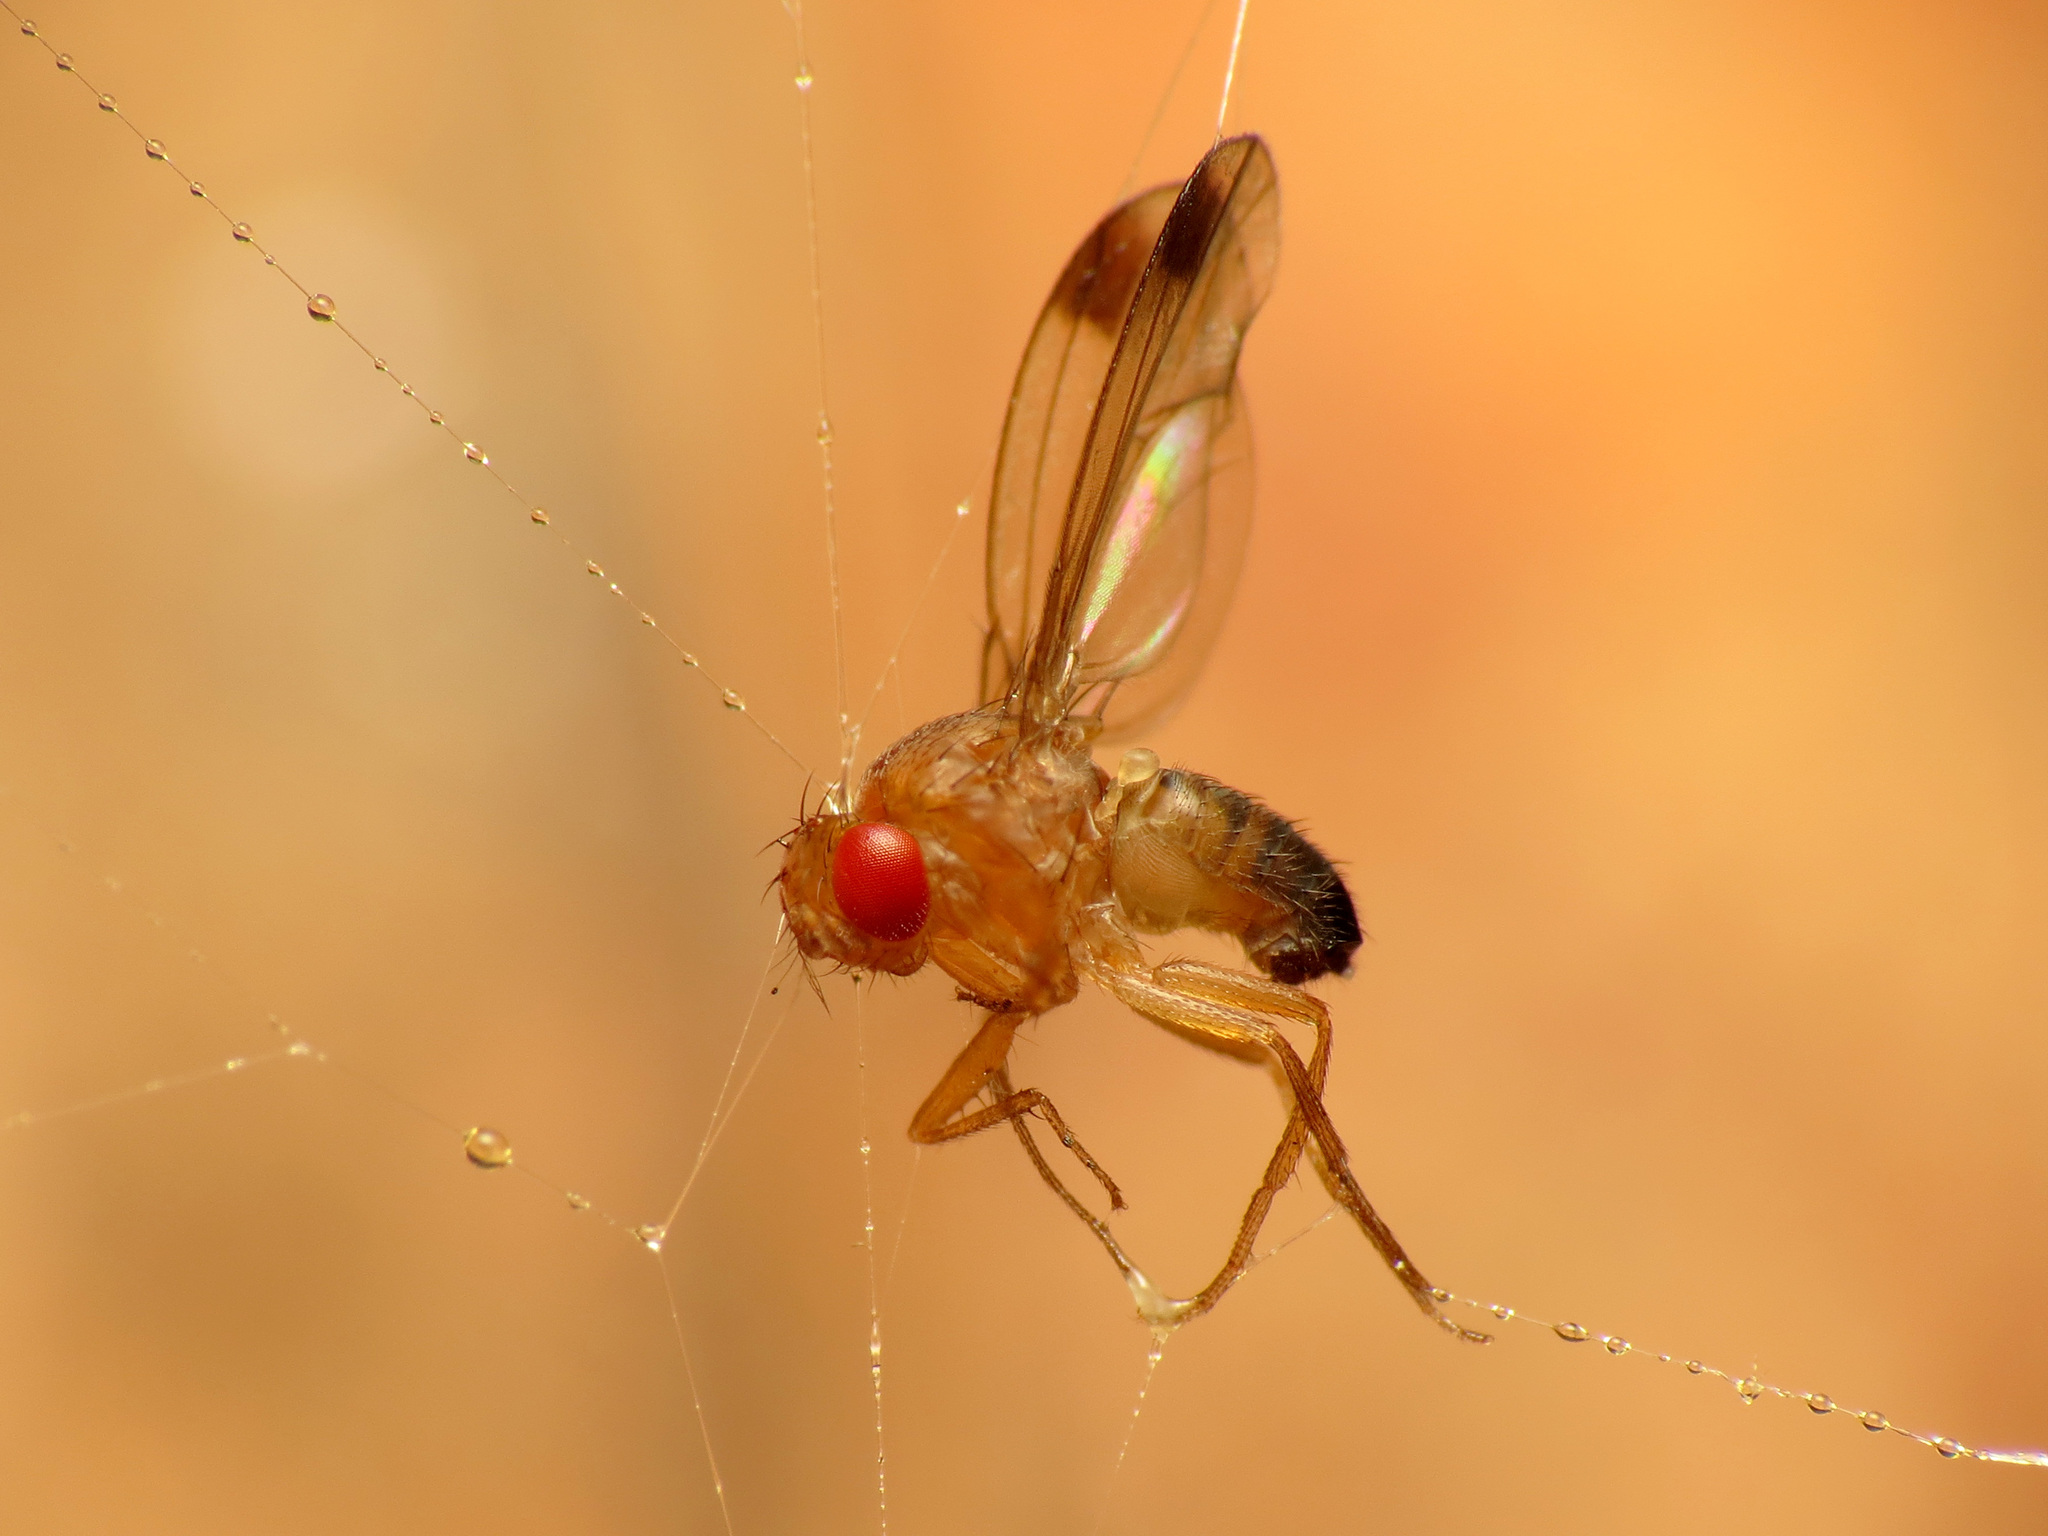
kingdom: Animalia
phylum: Arthropoda
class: Insecta
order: Diptera
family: Drosophilidae
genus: Drosophila
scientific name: Drosophila suzukii
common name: Spotted-wing drosophila
